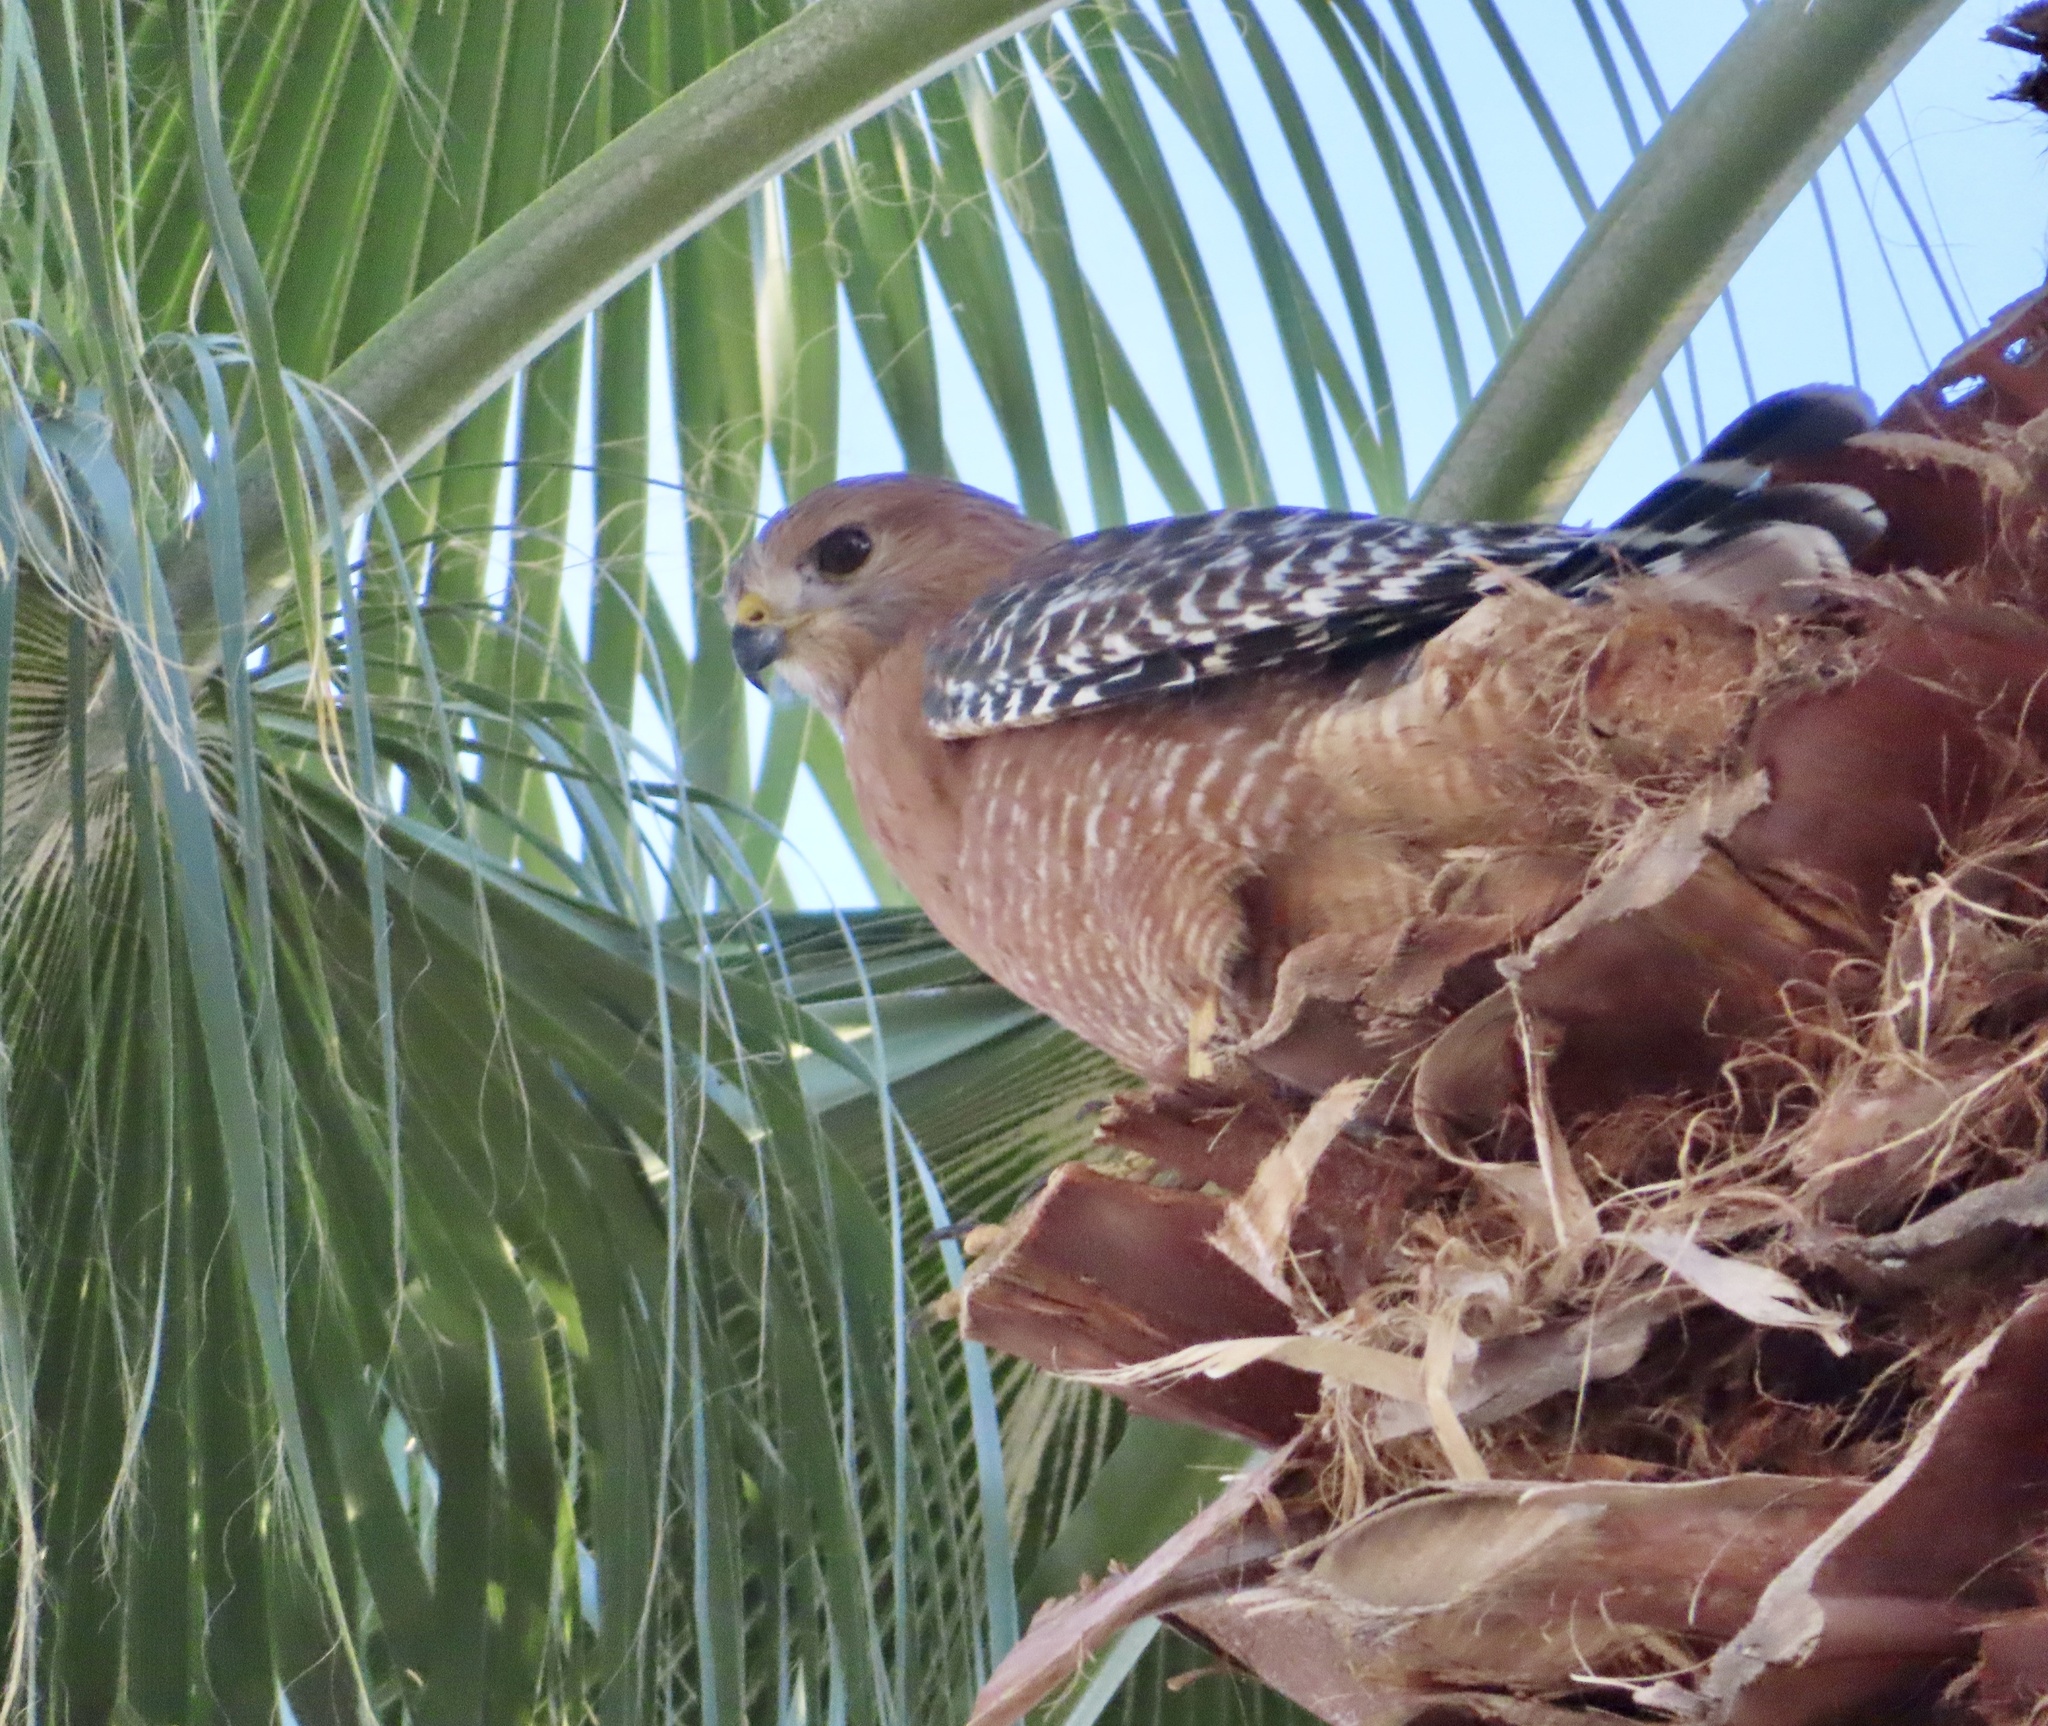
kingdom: Animalia
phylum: Chordata
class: Aves
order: Accipitriformes
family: Accipitridae
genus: Buteo
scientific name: Buteo lineatus
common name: Red-shouldered hawk
